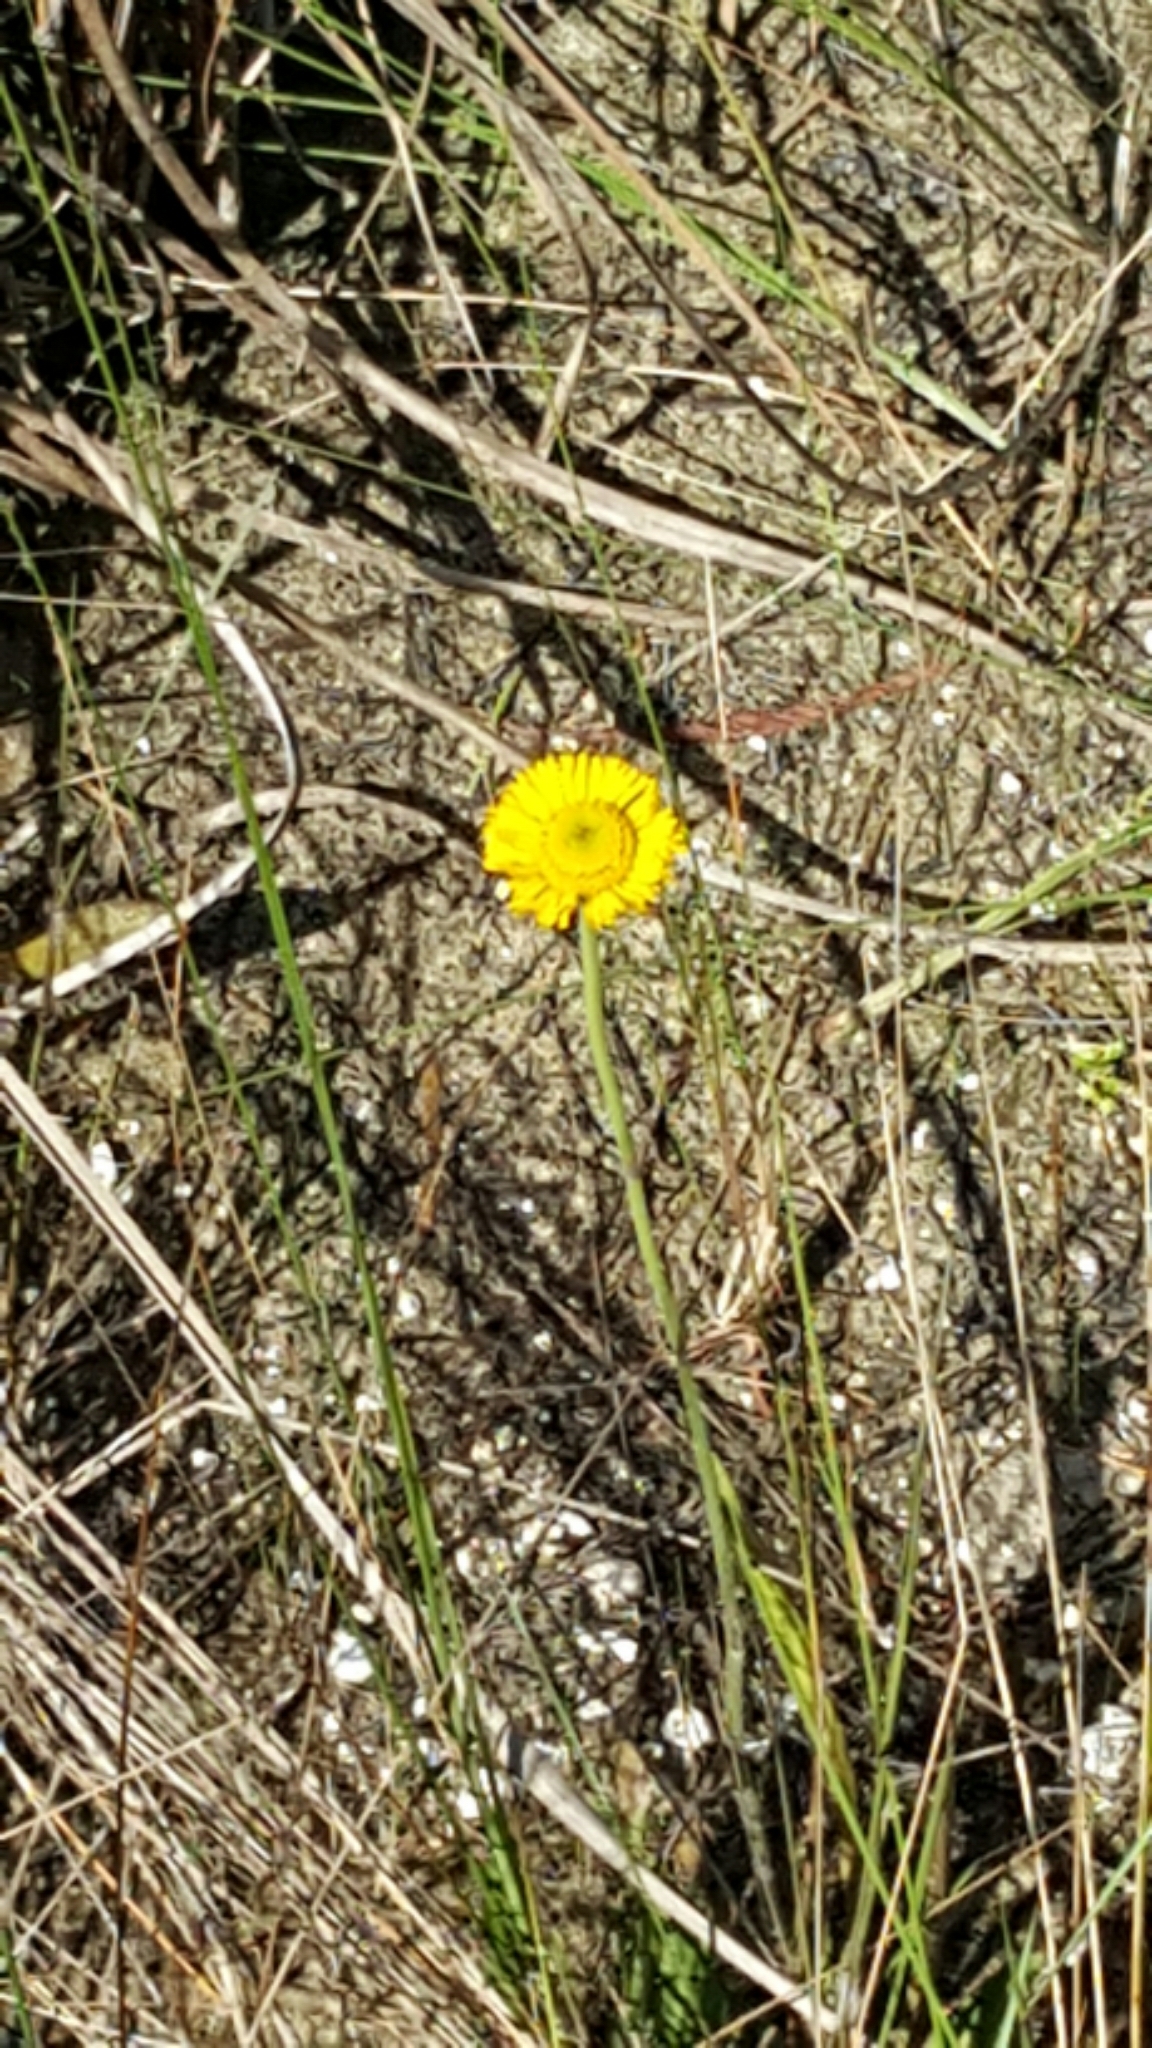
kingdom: Plantae
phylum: Tracheophyta
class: Magnoliopsida
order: Asterales
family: Asteraceae
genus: Helenium
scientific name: Helenium pinnatifidum
